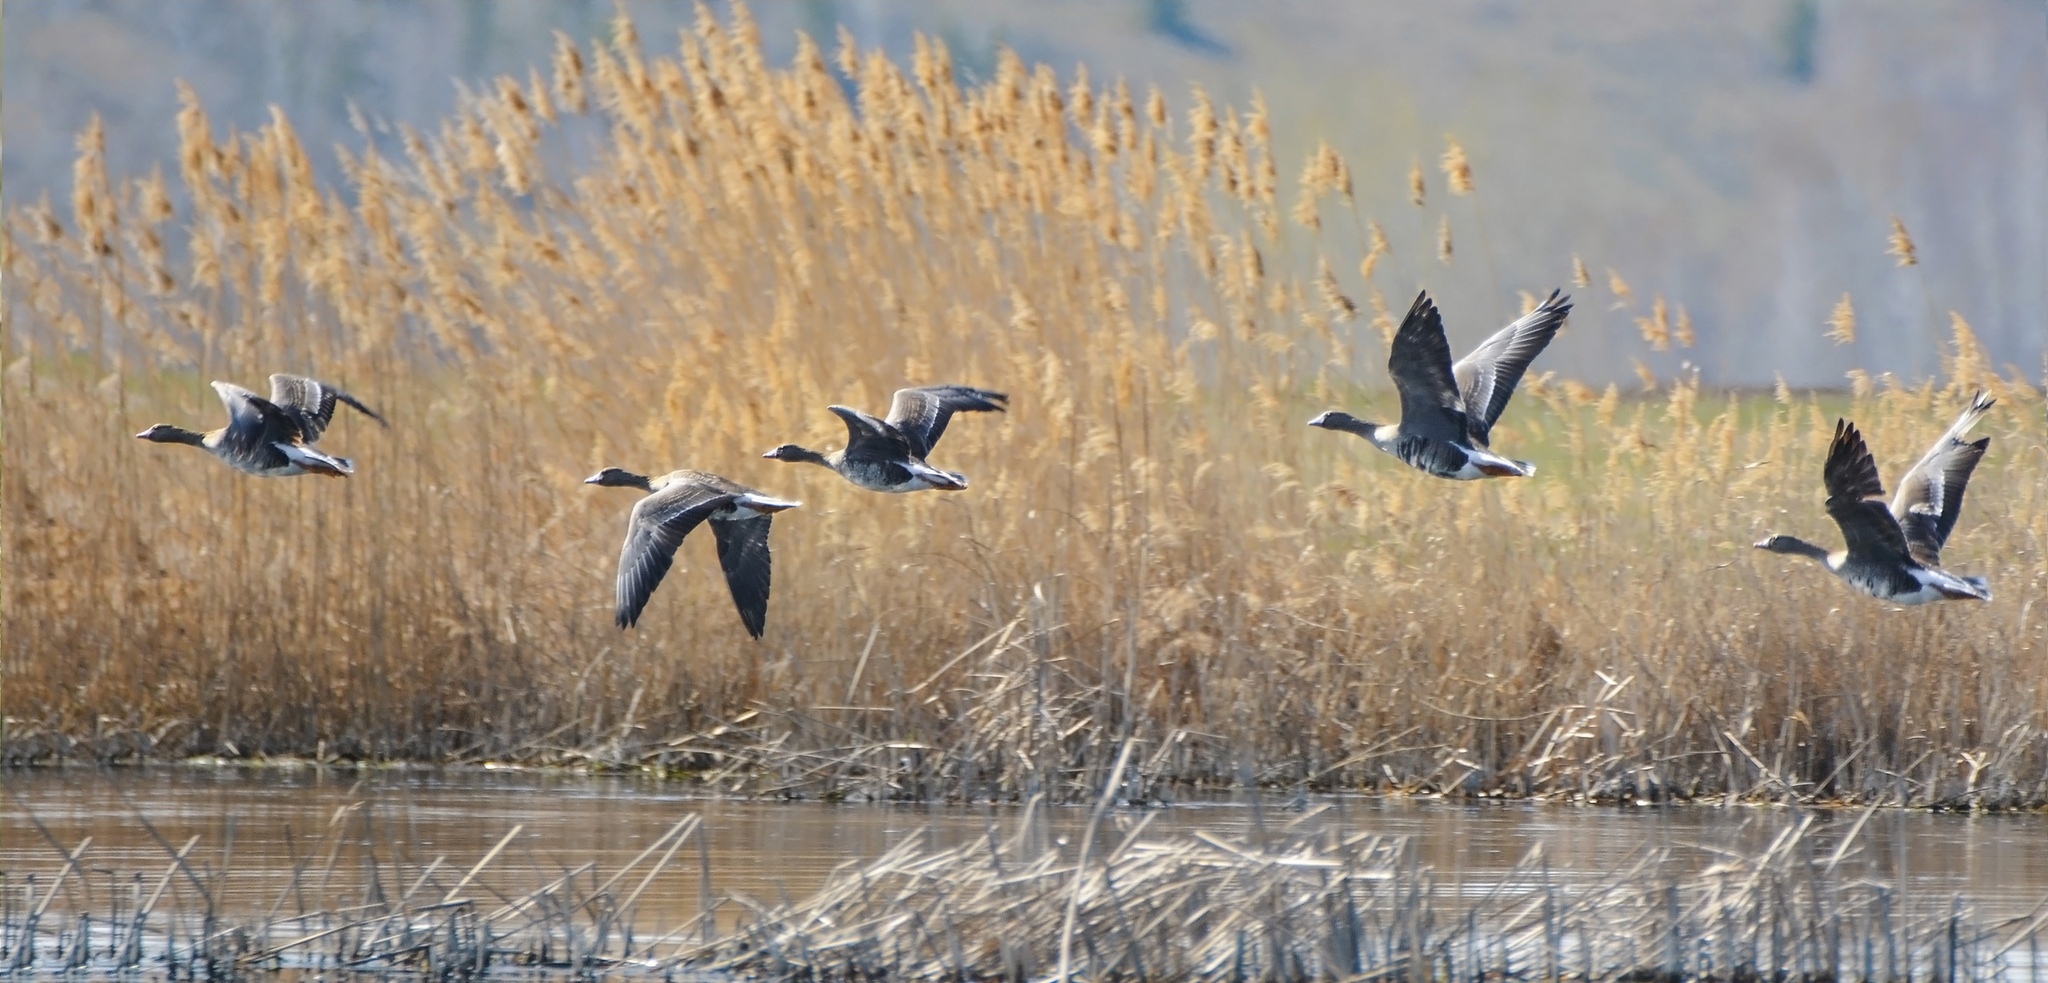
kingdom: Animalia
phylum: Chordata
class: Aves
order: Anseriformes
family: Anatidae
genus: Anser
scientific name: Anser albifrons
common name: Greater white-fronted goose
